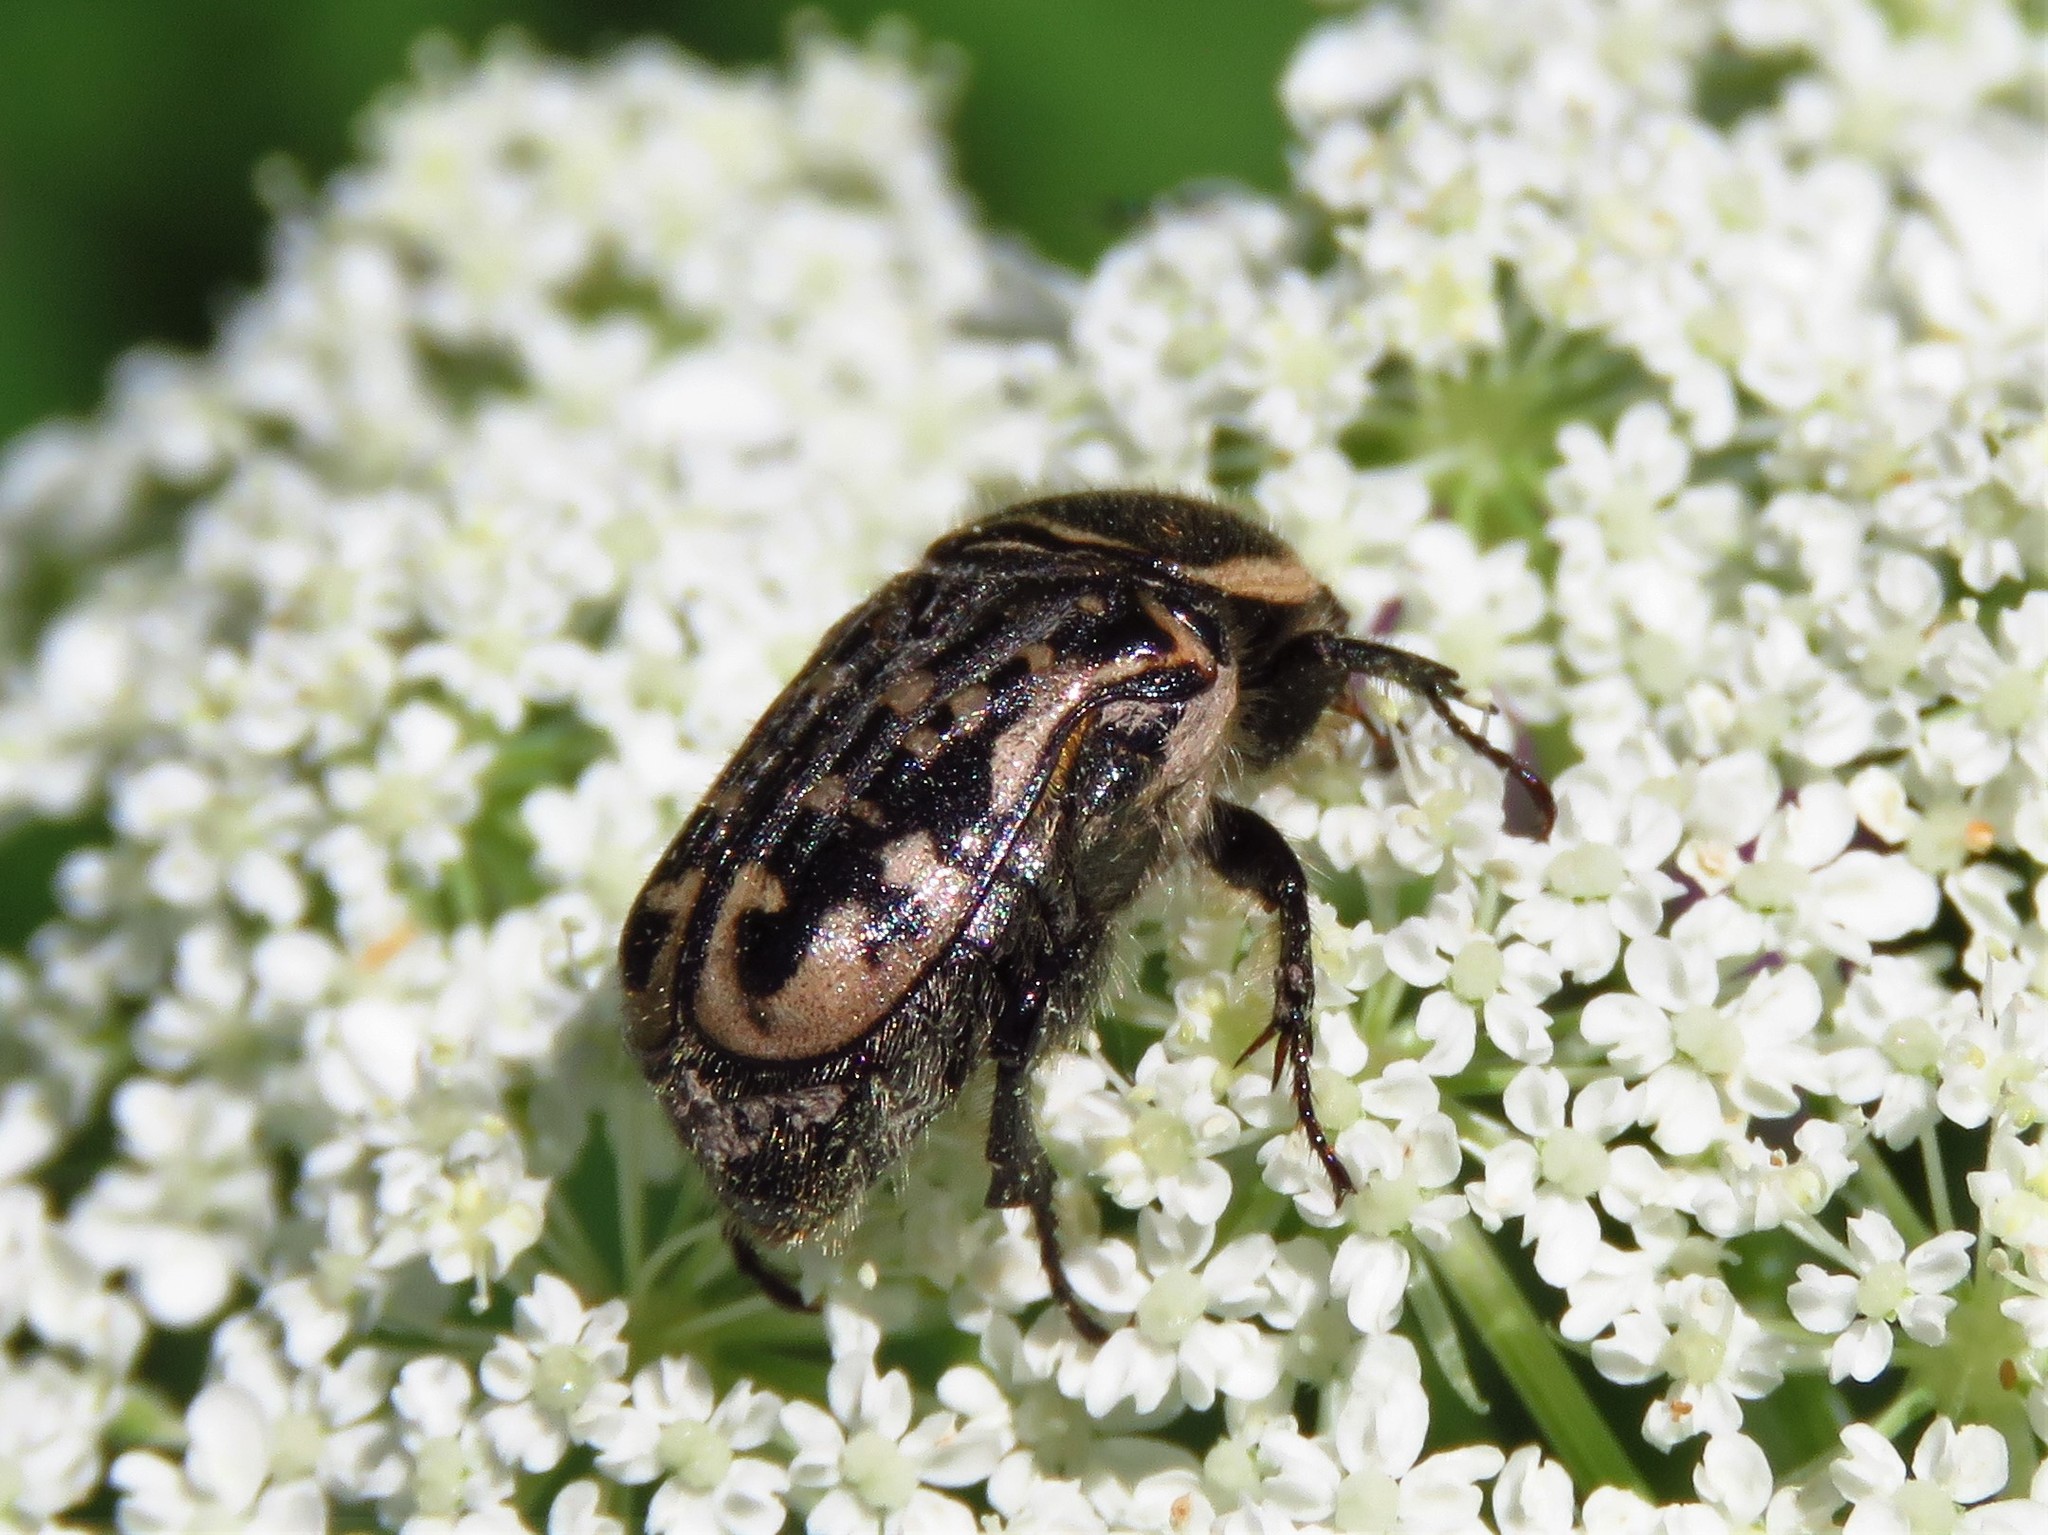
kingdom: Animalia
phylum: Arthropoda
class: Insecta
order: Coleoptera
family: Scarabaeidae
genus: Euphoria
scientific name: Euphoria kernii
